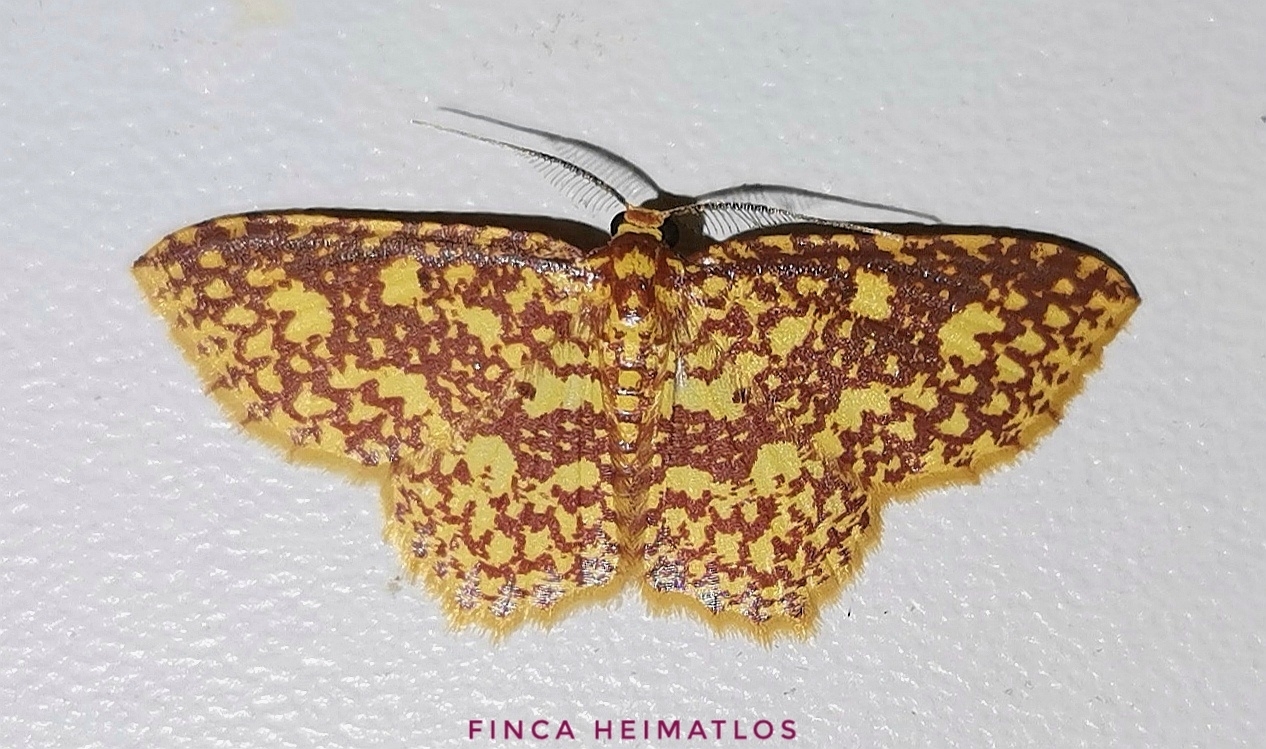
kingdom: Animalia
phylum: Arthropoda
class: Insecta
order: Lepidoptera
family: Geometridae
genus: Eois
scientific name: Eois cancellata
